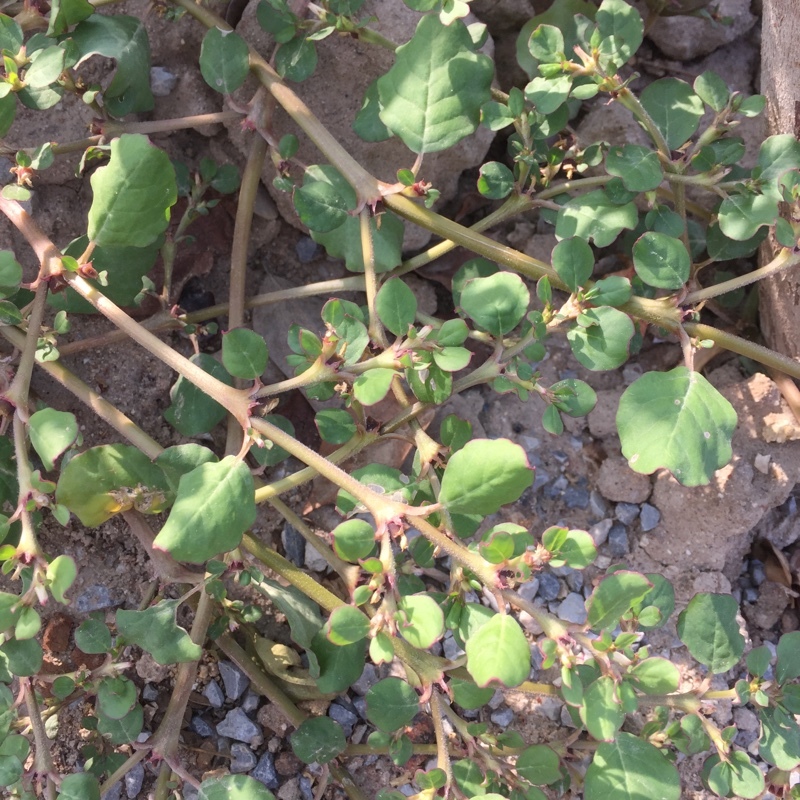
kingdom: Plantae
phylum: Tracheophyta
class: Magnoliopsida
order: Caryophyllales
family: Aizoaceae
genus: Trianthema
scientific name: Trianthema portulacastrum
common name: Desert horsepurslane
